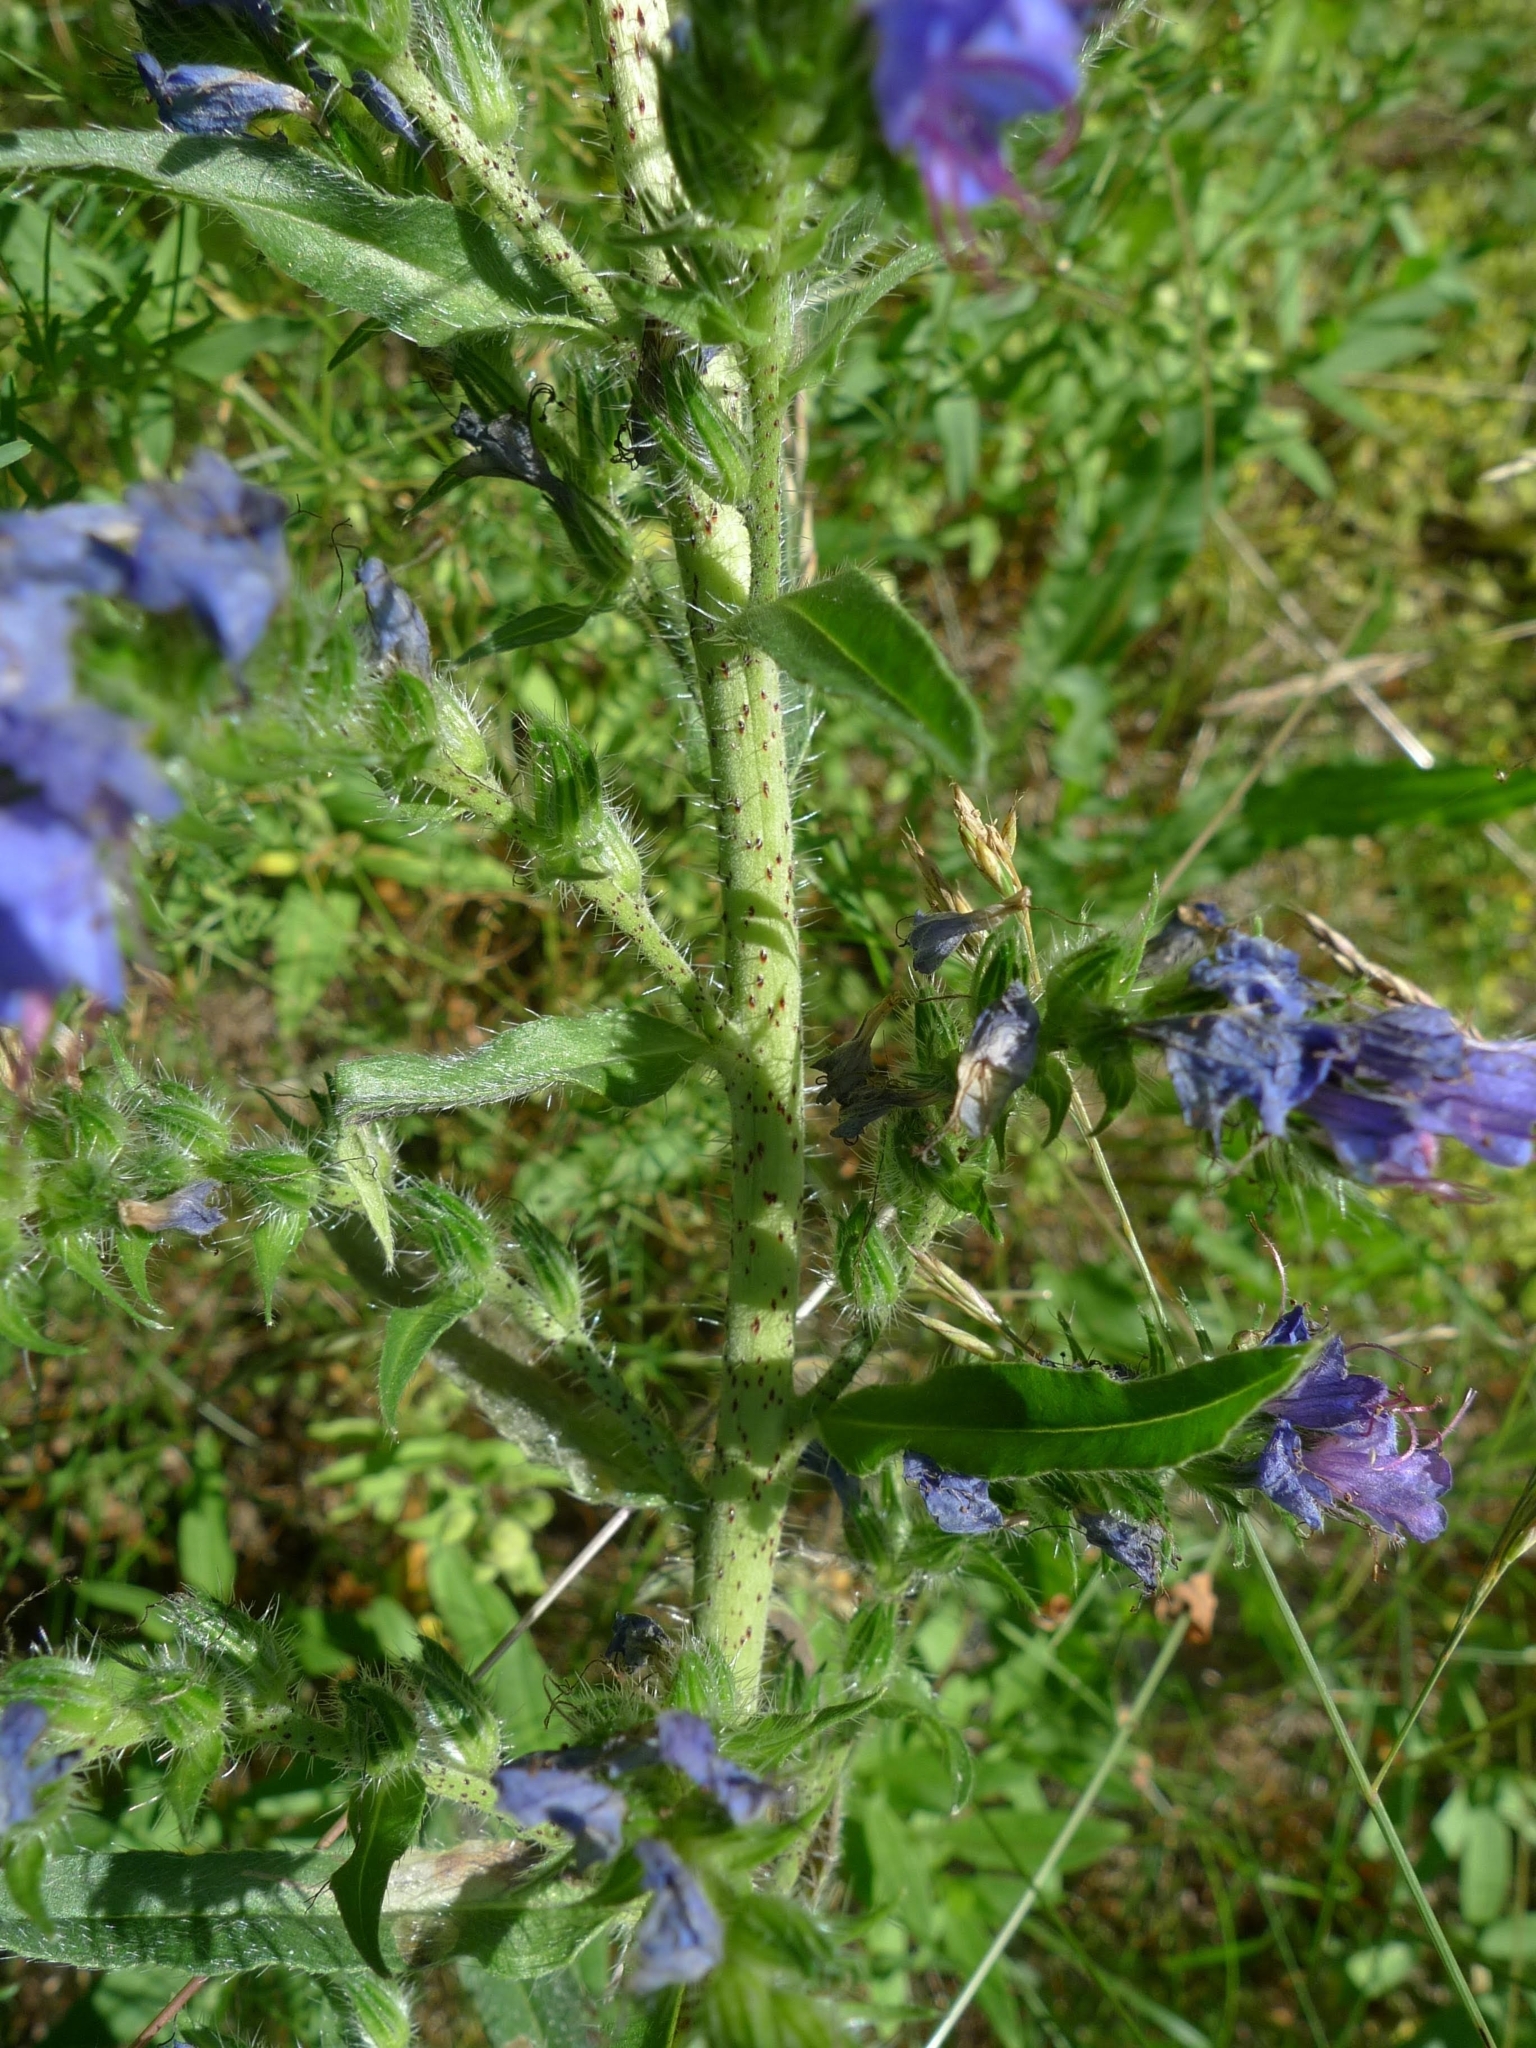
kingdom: Plantae
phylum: Tracheophyta
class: Magnoliopsida
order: Boraginales
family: Boraginaceae
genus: Echium
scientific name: Echium vulgare
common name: Common viper's bugloss
